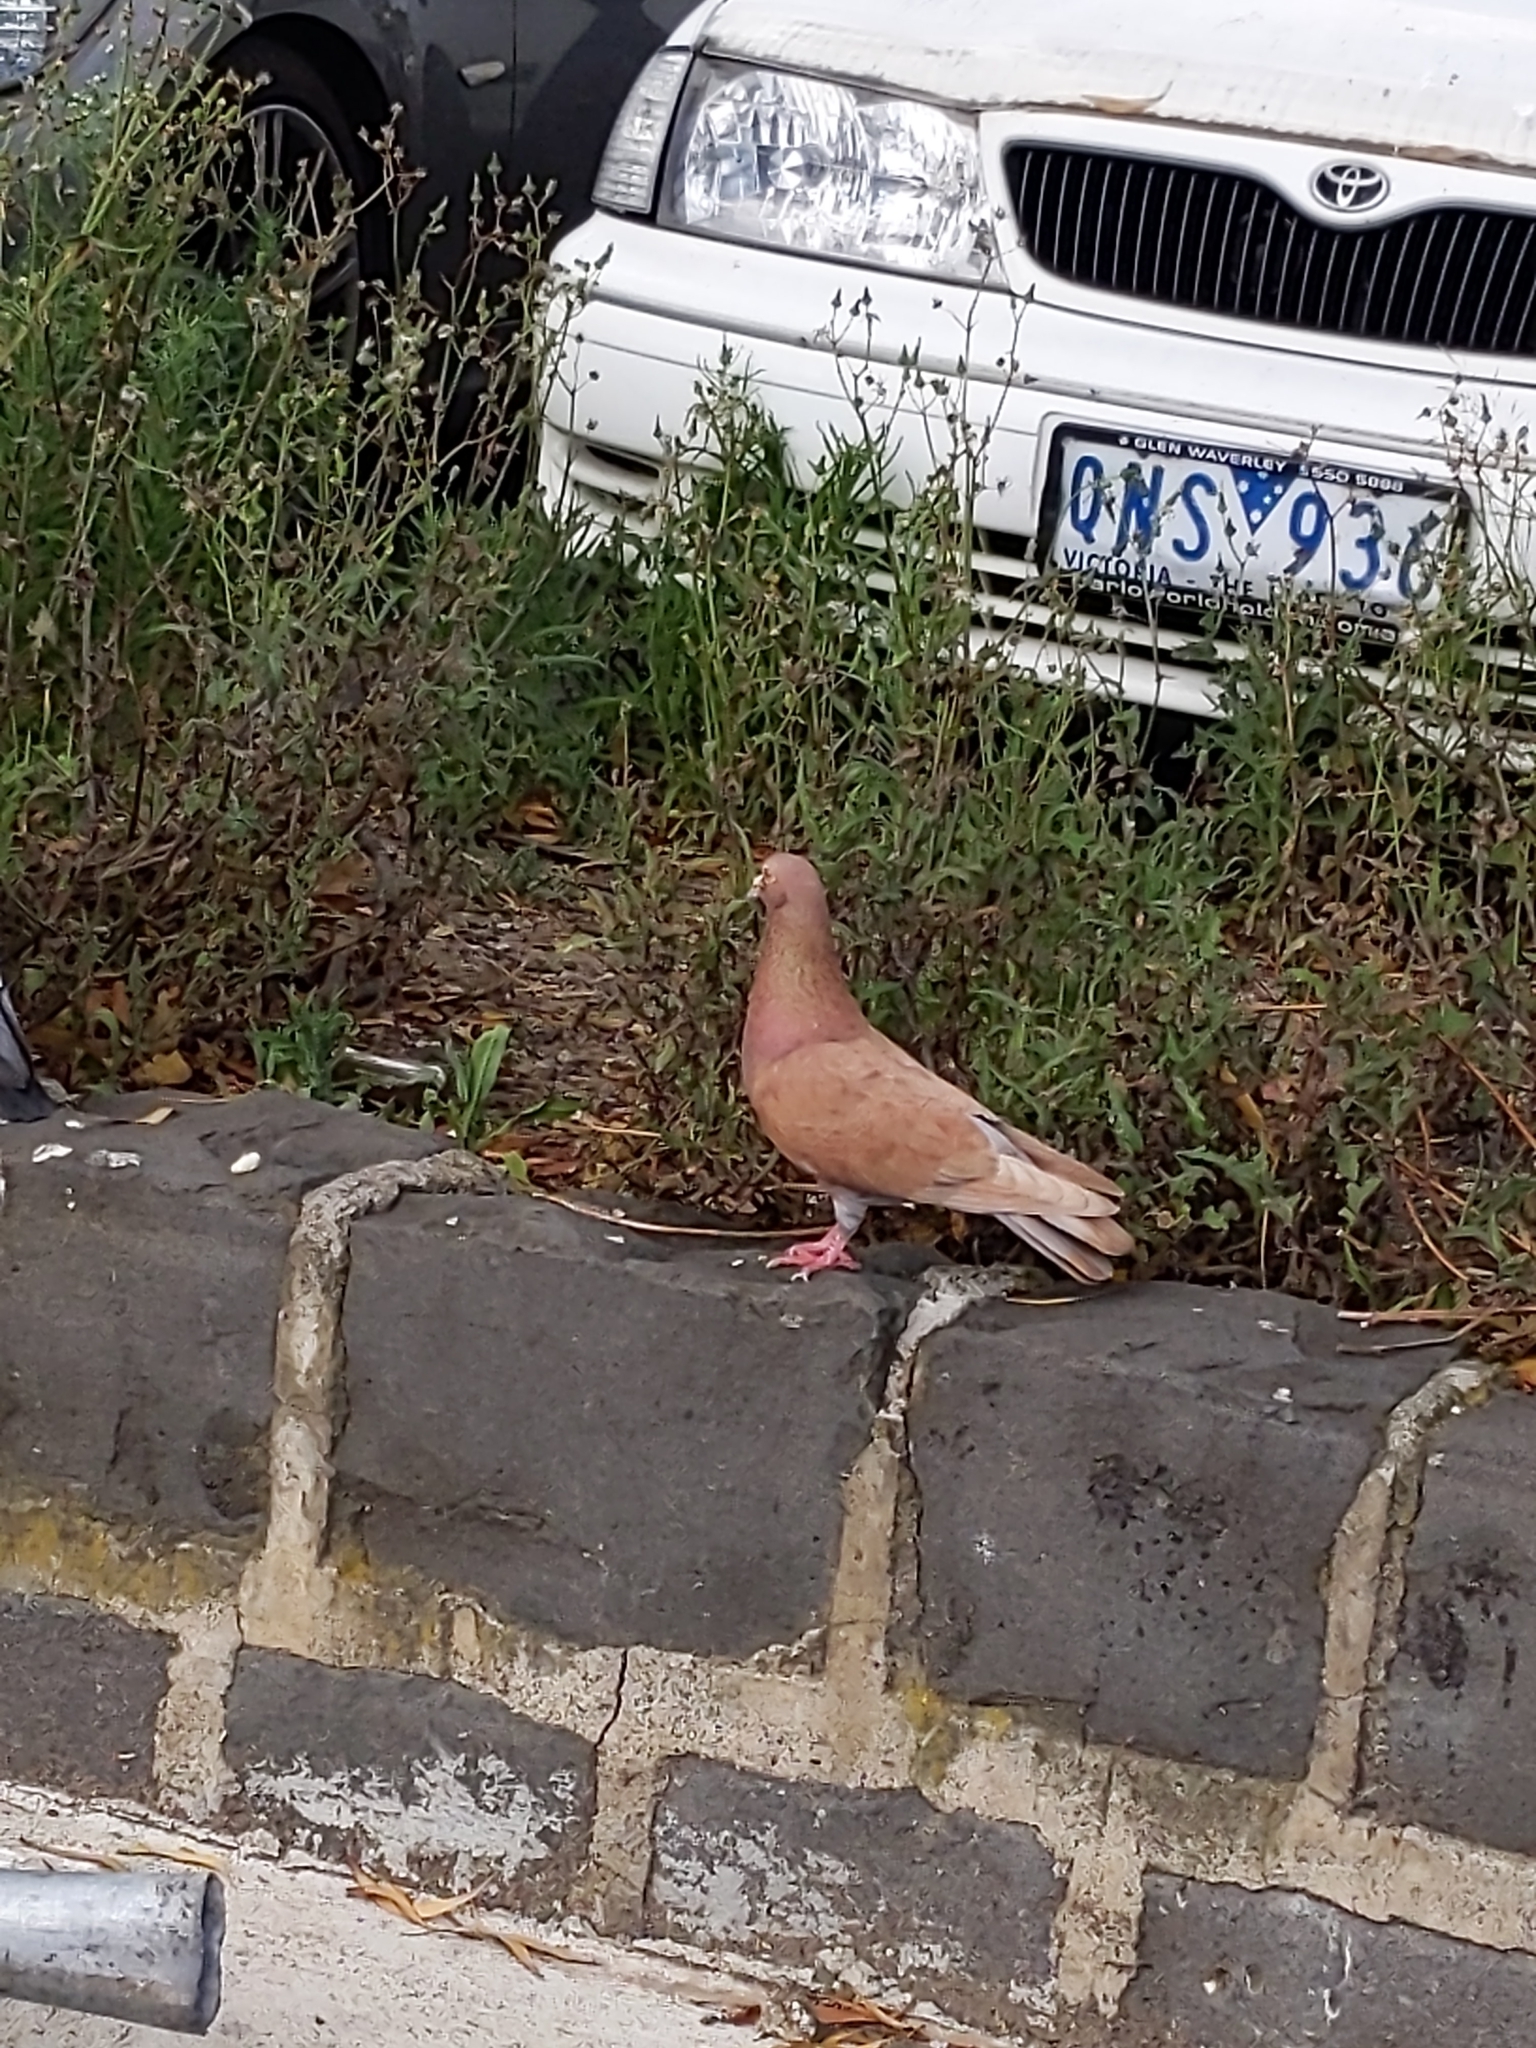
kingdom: Animalia
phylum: Chordata
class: Aves
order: Columbiformes
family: Columbidae
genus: Columba
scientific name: Columba livia
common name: Rock pigeon
